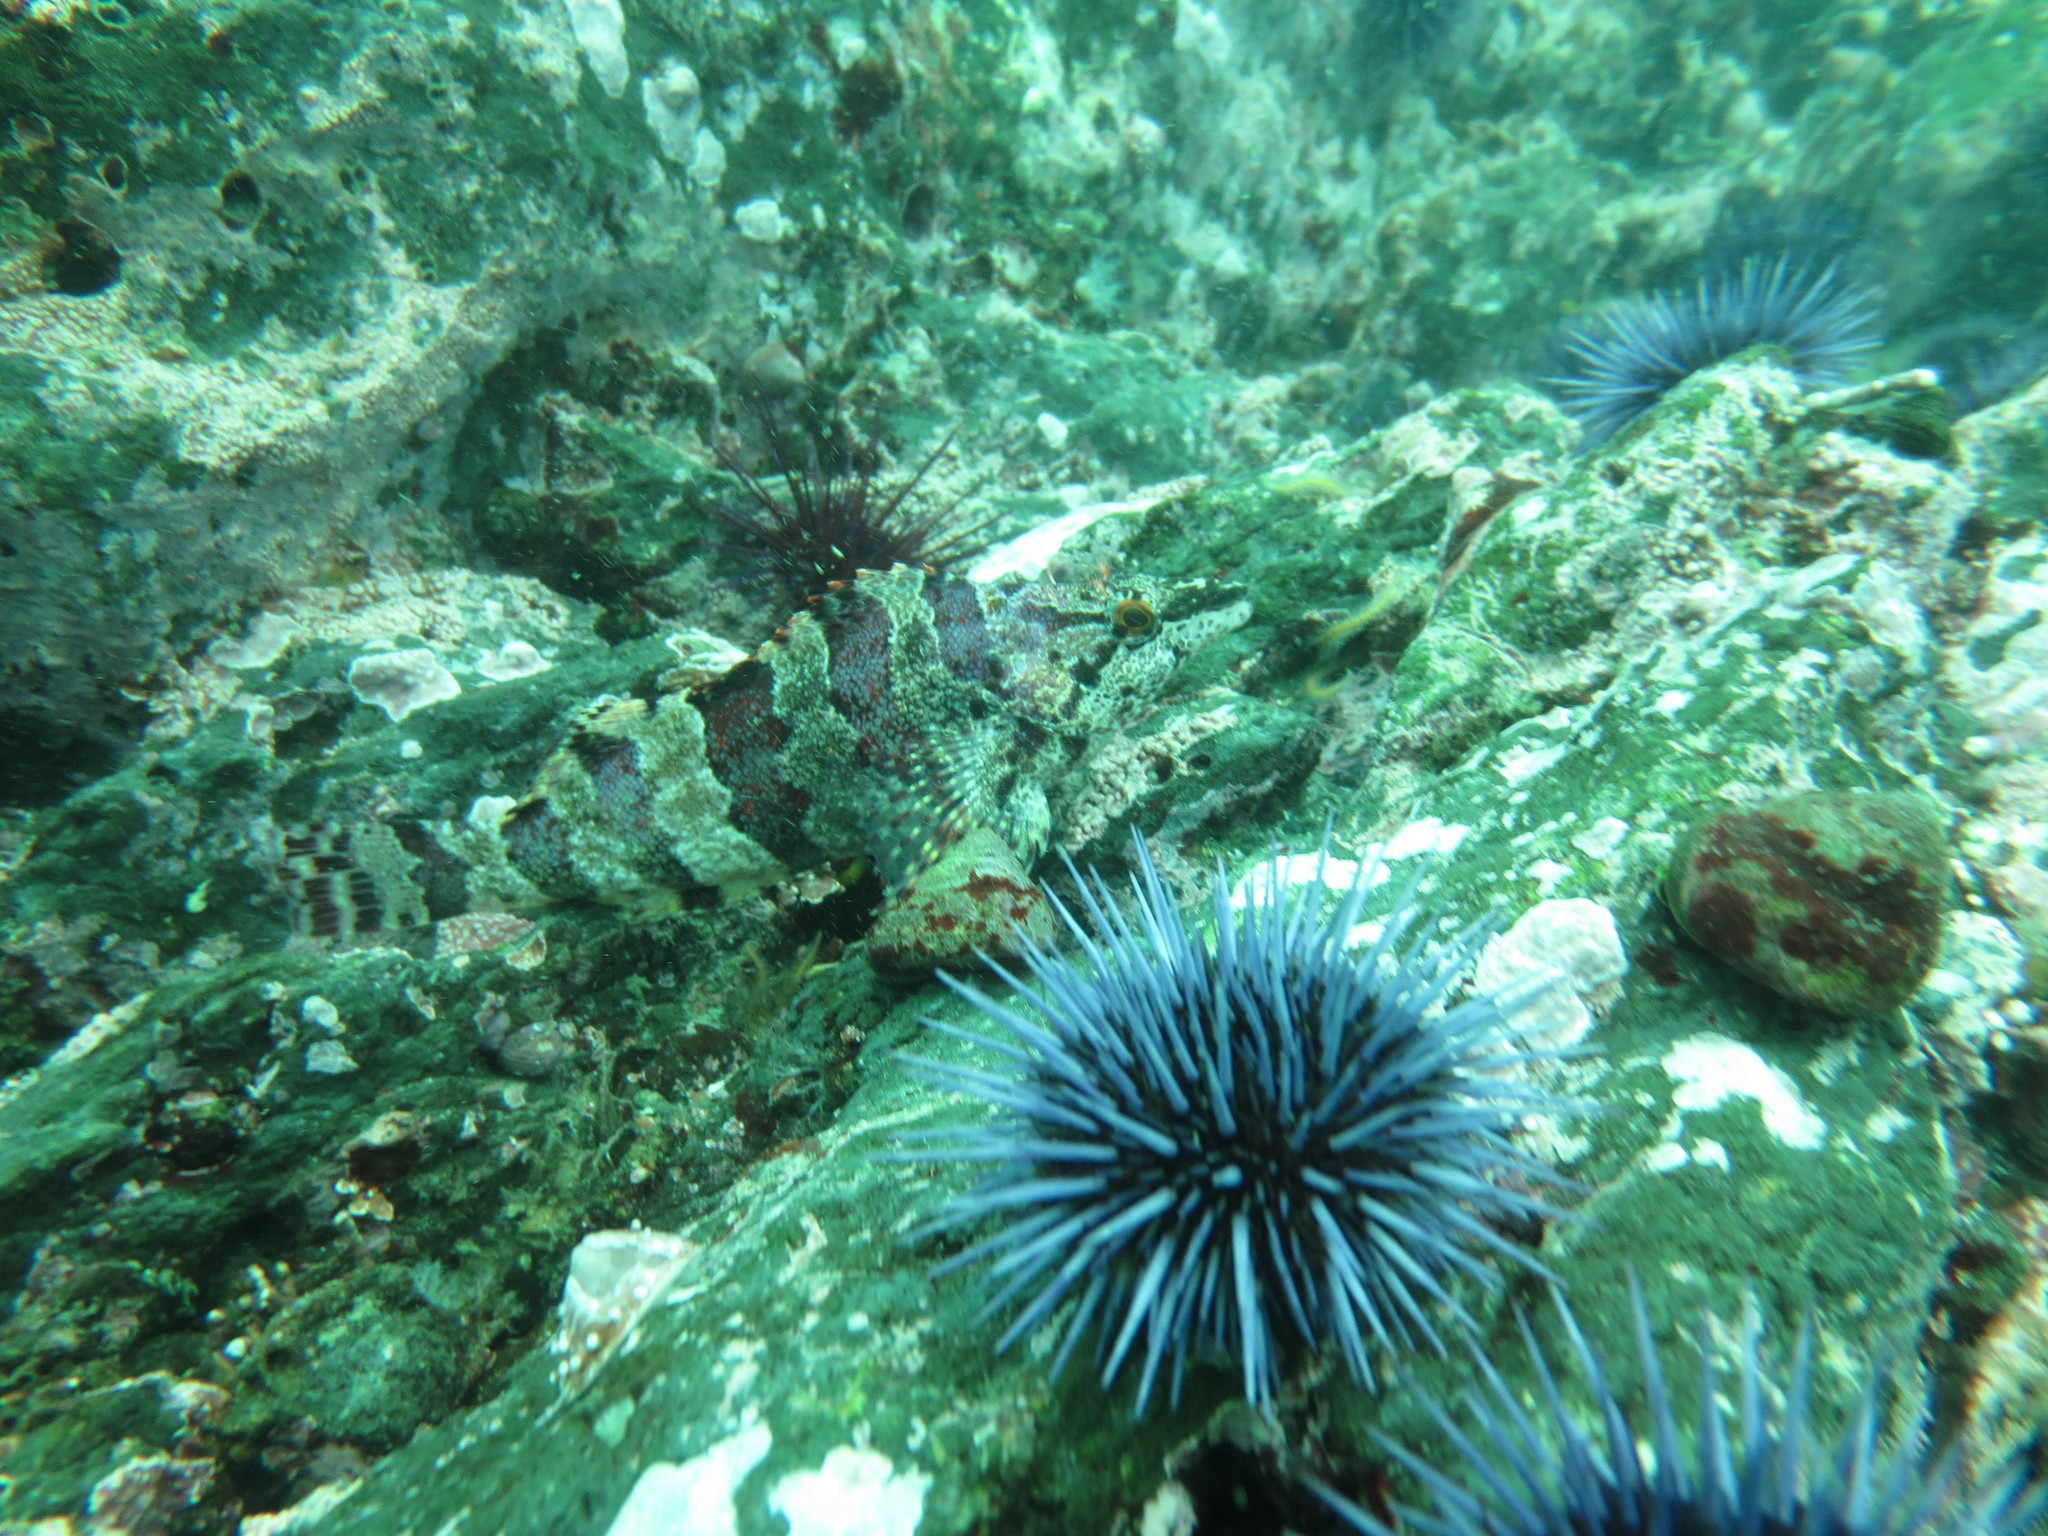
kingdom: Animalia
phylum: Chordata
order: Scorpaeniformes
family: Hexagrammidae
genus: Oxylebius
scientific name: Oxylebius pictus
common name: Painted greenling
